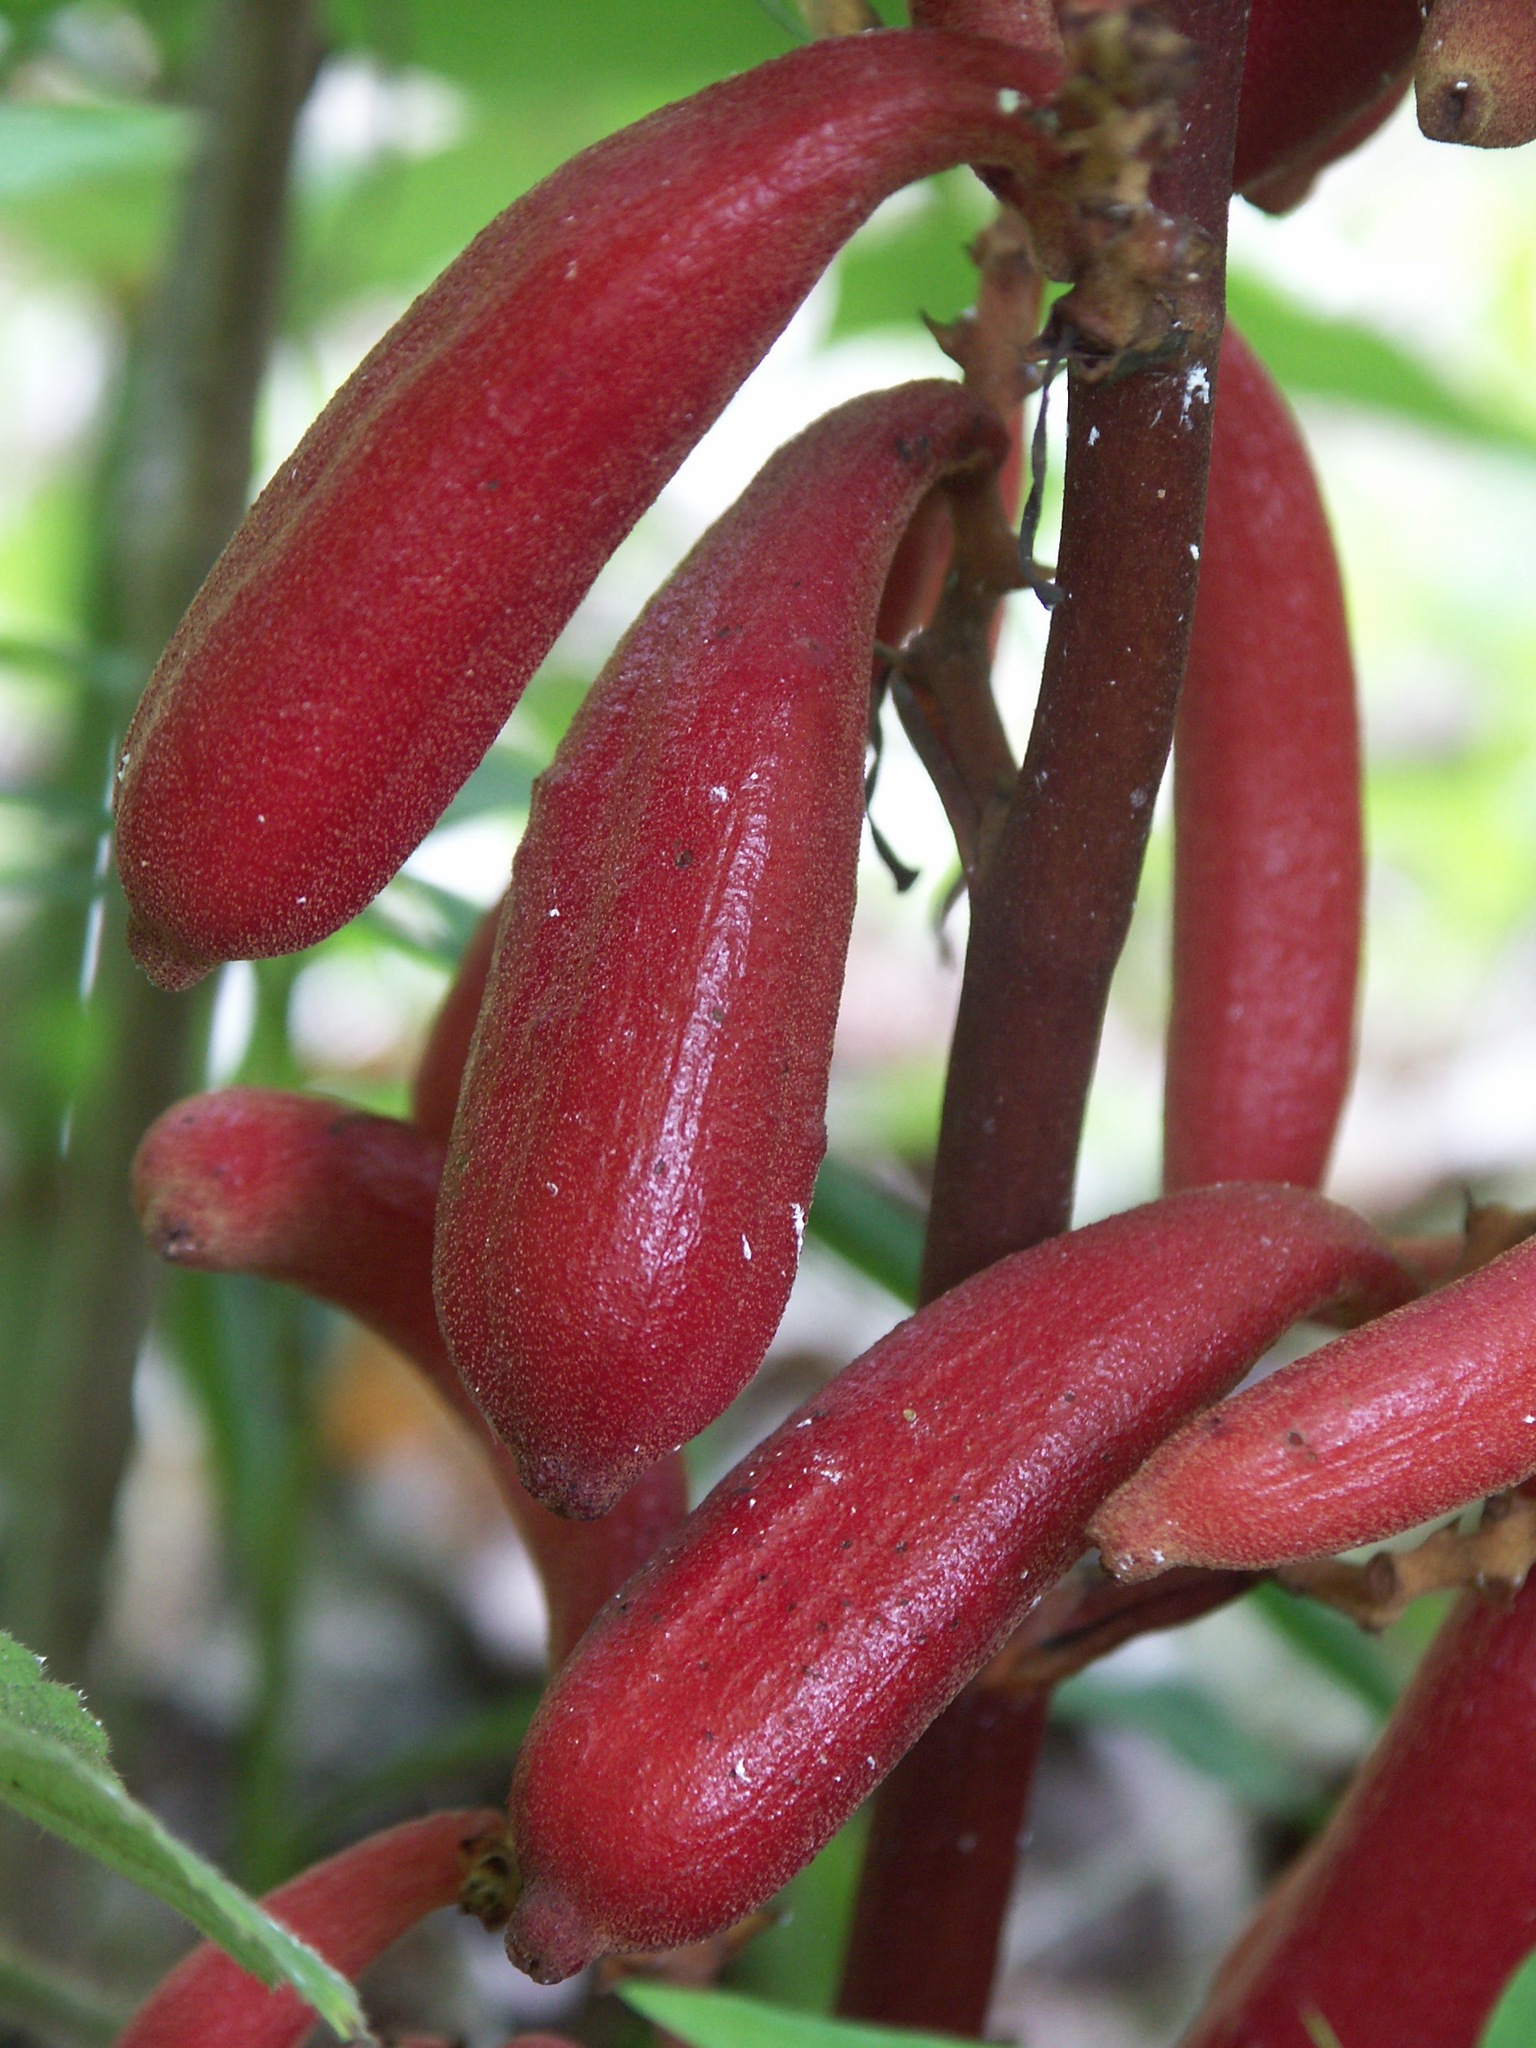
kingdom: Plantae
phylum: Tracheophyta
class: Liliopsida
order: Asparagales
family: Orchidaceae
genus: Cyrtosia
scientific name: Cyrtosia septentrionalis
